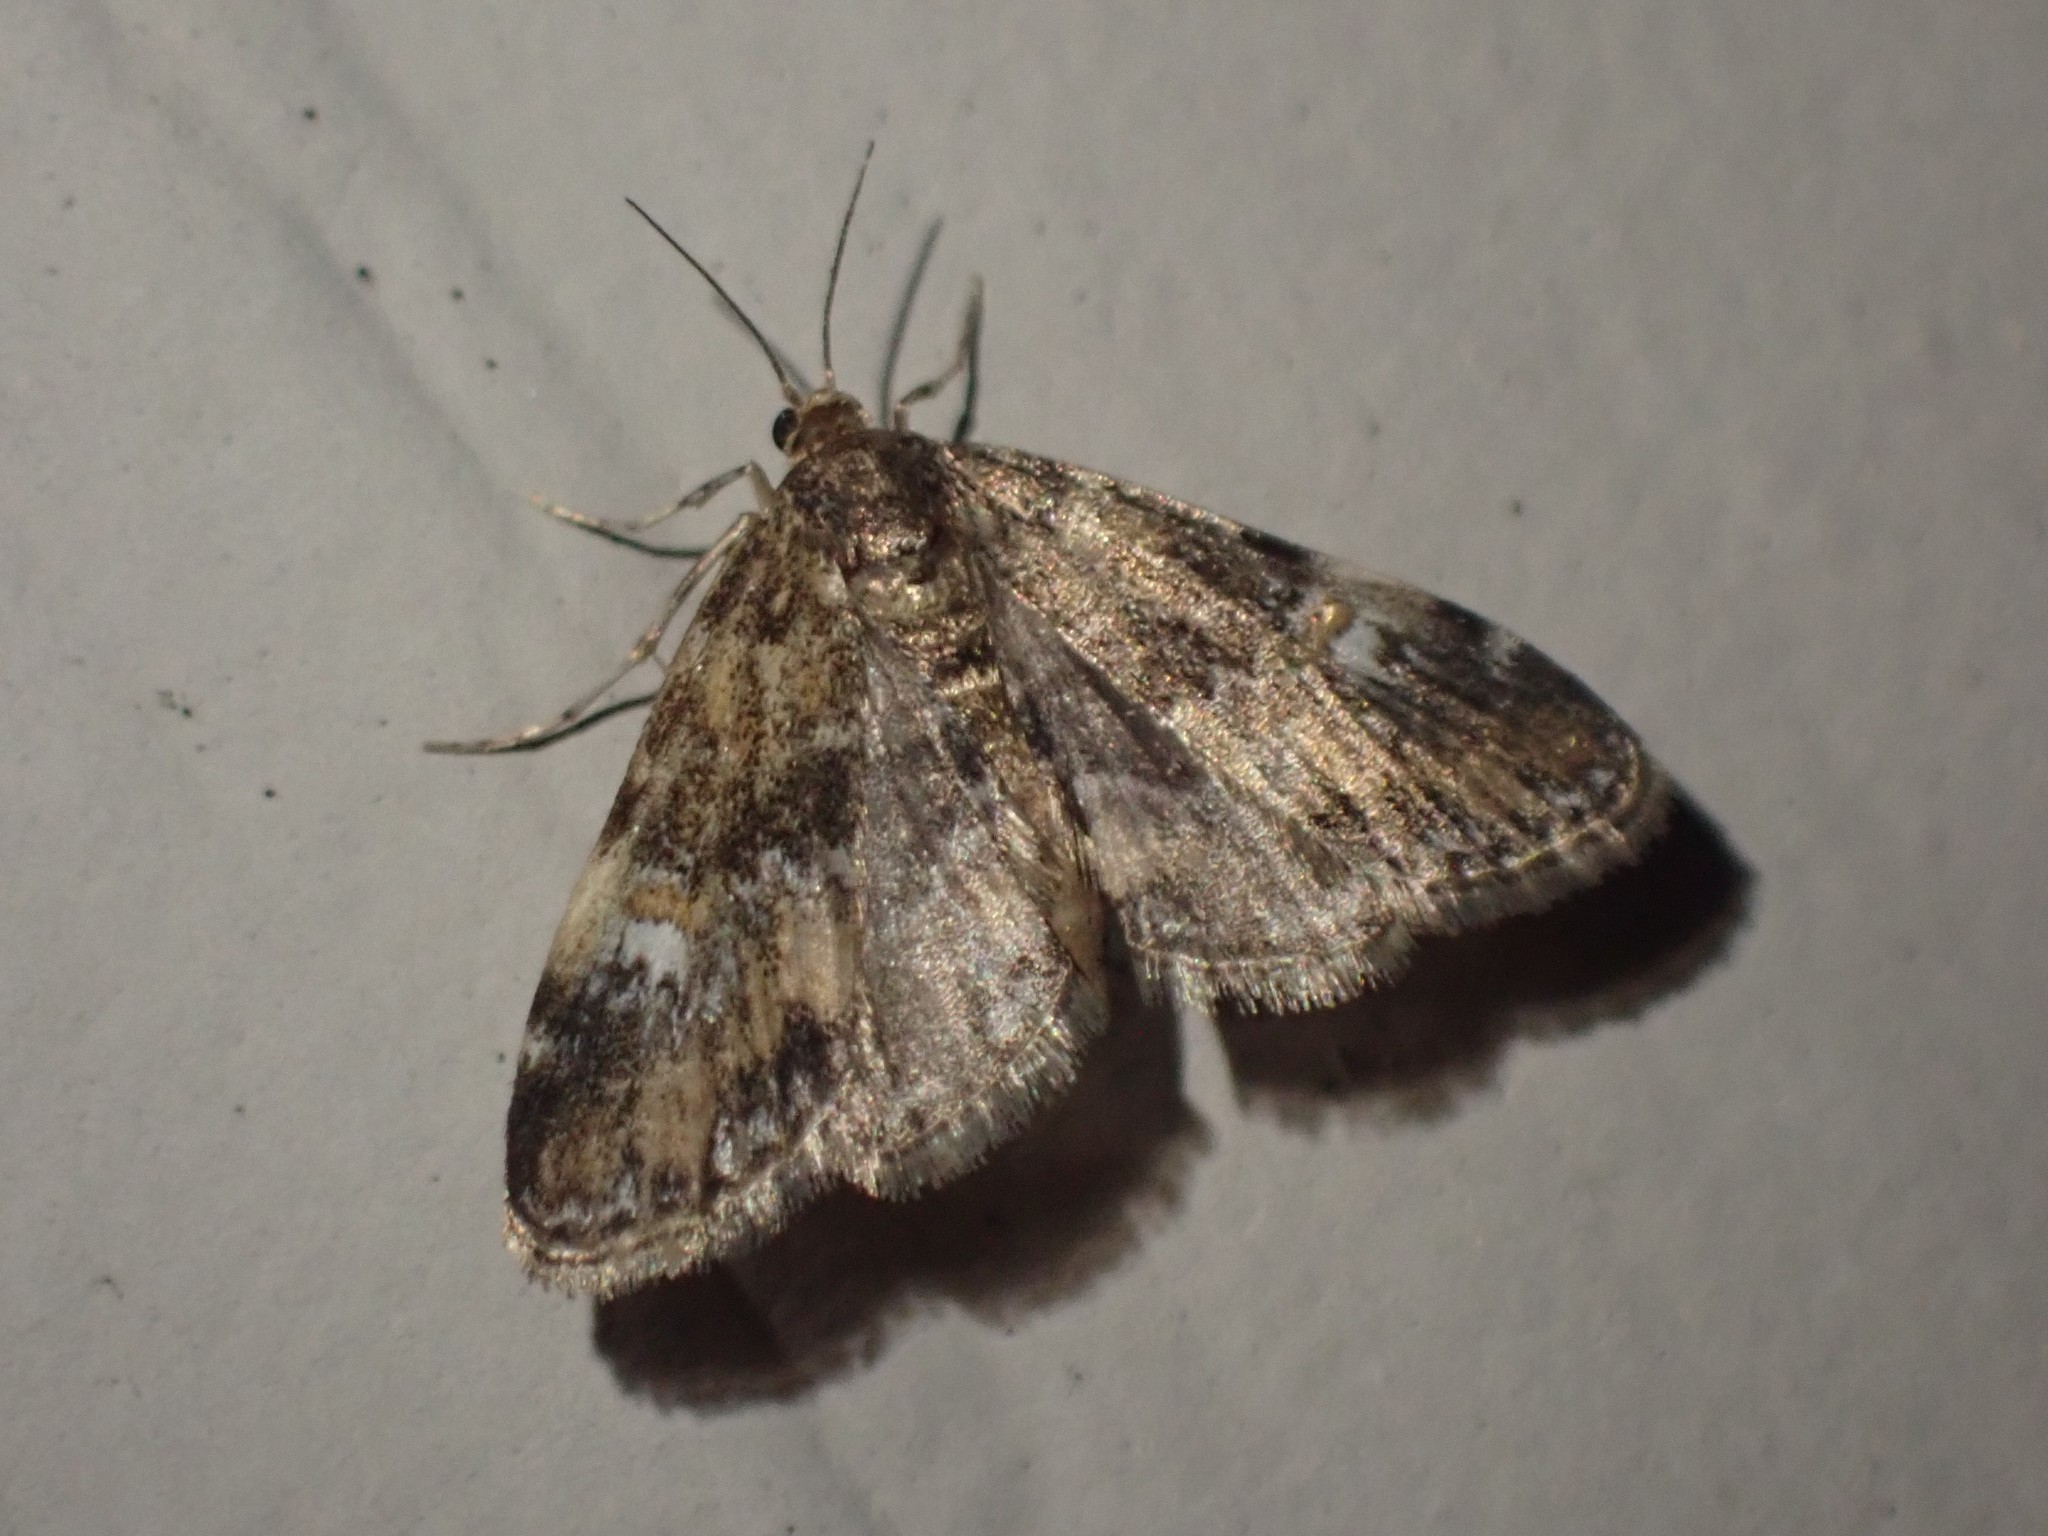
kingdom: Animalia
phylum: Arthropoda
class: Insecta
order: Lepidoptera
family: Crambidae
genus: Elophila
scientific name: Elophila obliteralis
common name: Waterlily leafcutter moth
